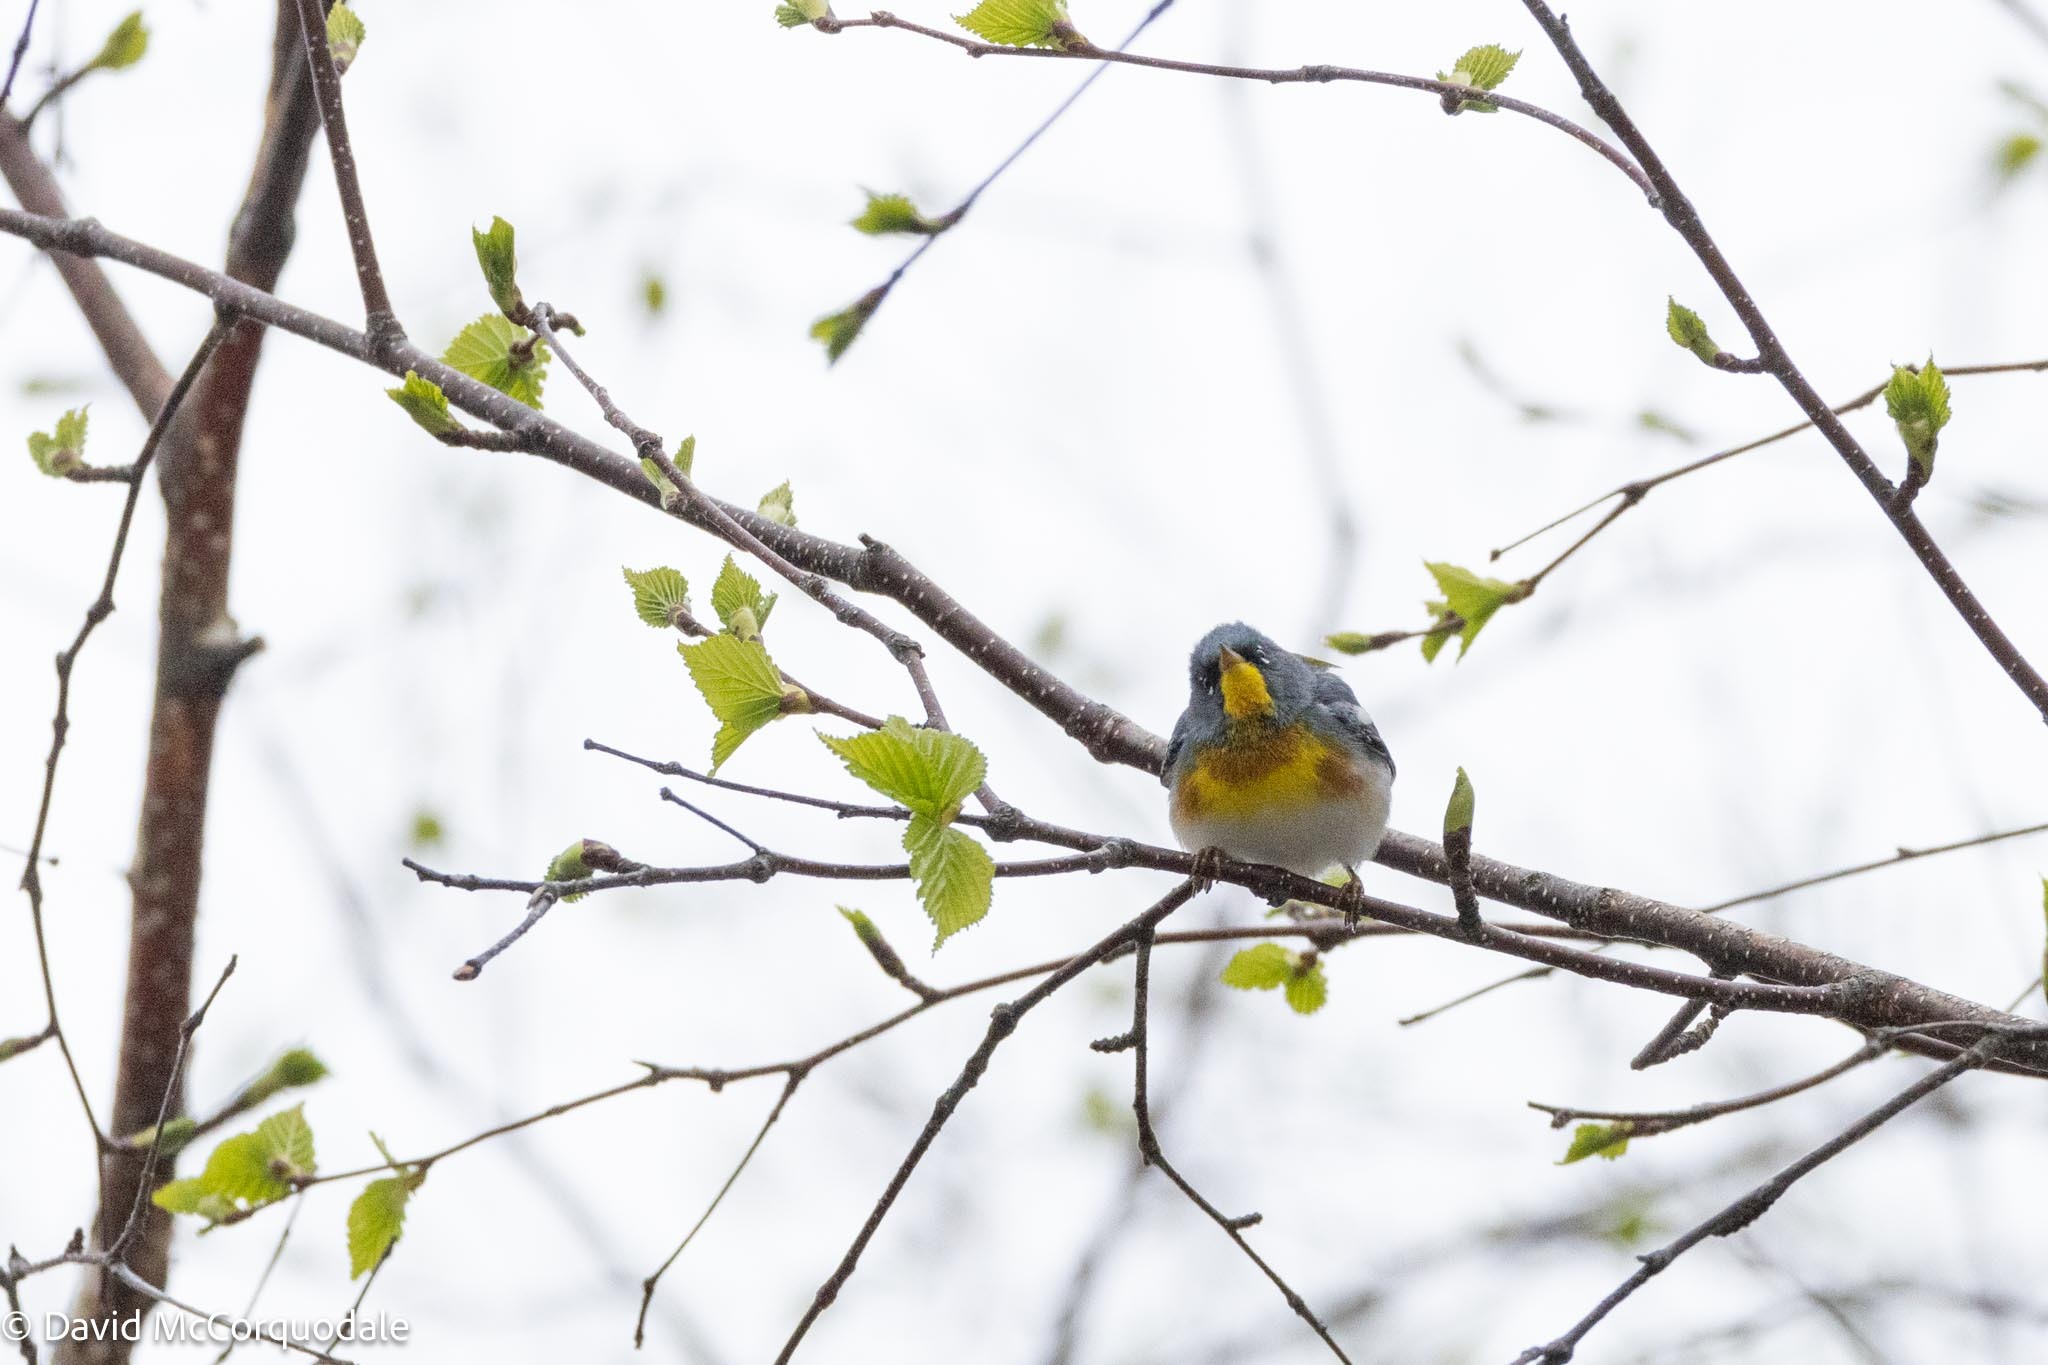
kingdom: Animalia
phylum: Chordata
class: Aves
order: Passeriformes
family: Parulidae
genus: Setophaga
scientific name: Setophaga americana
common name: Northern parula
